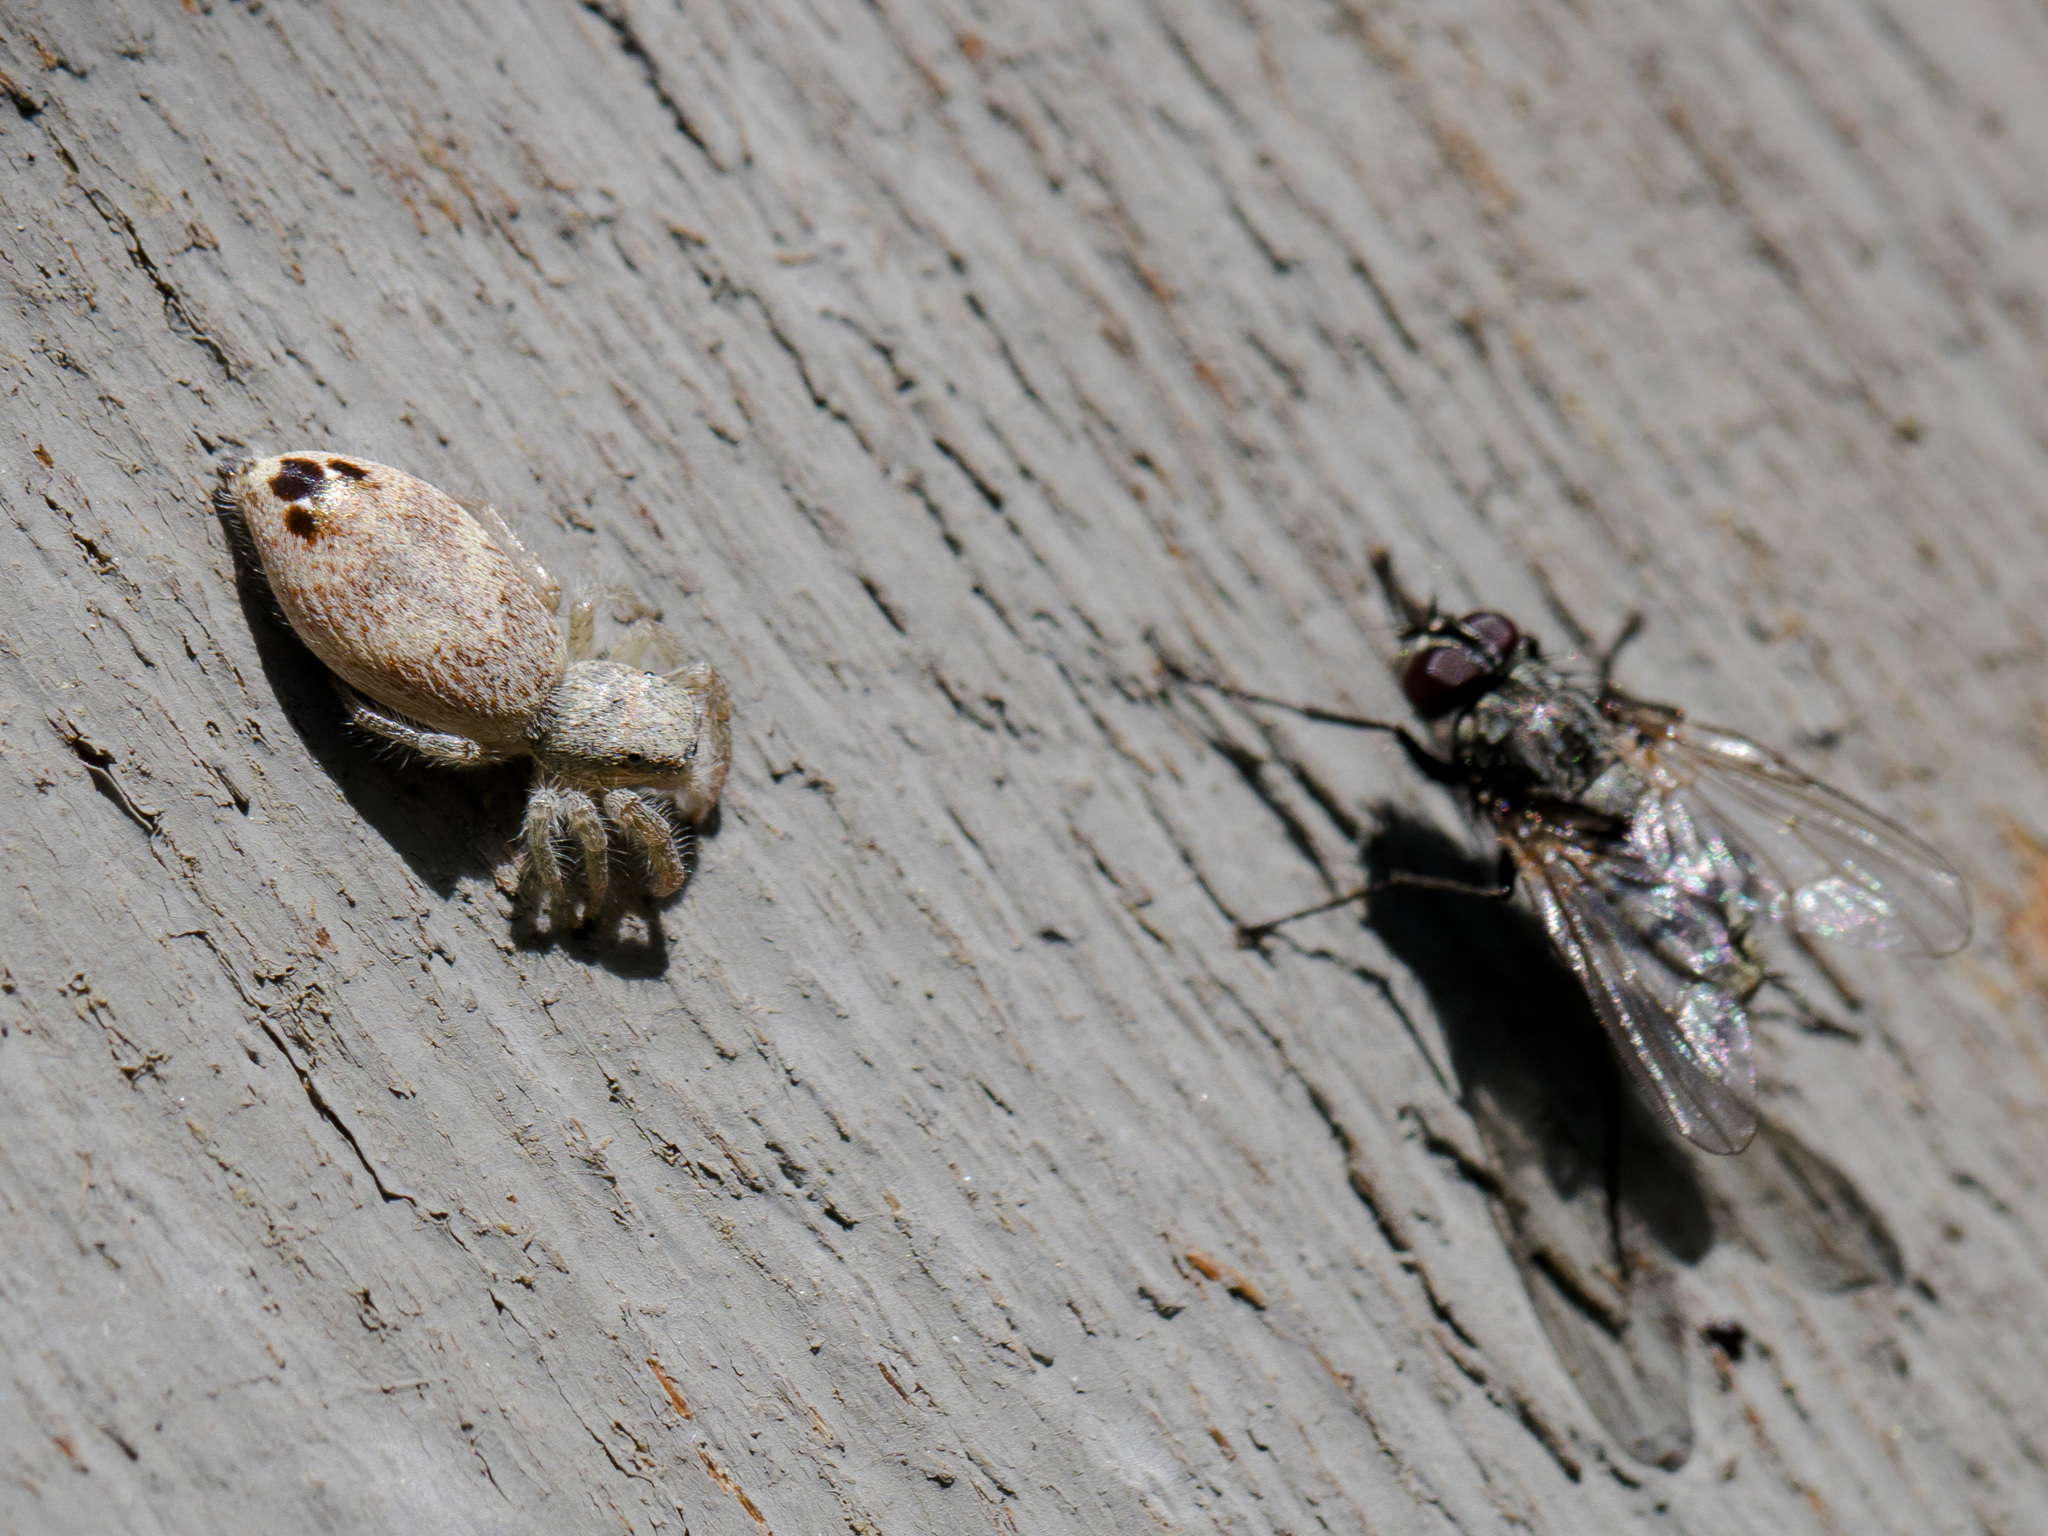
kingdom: Animalia
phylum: Arthropoda
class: Arachnida
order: Araneae
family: Salticidae
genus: Rudakius
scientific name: Rudakius cinctus
